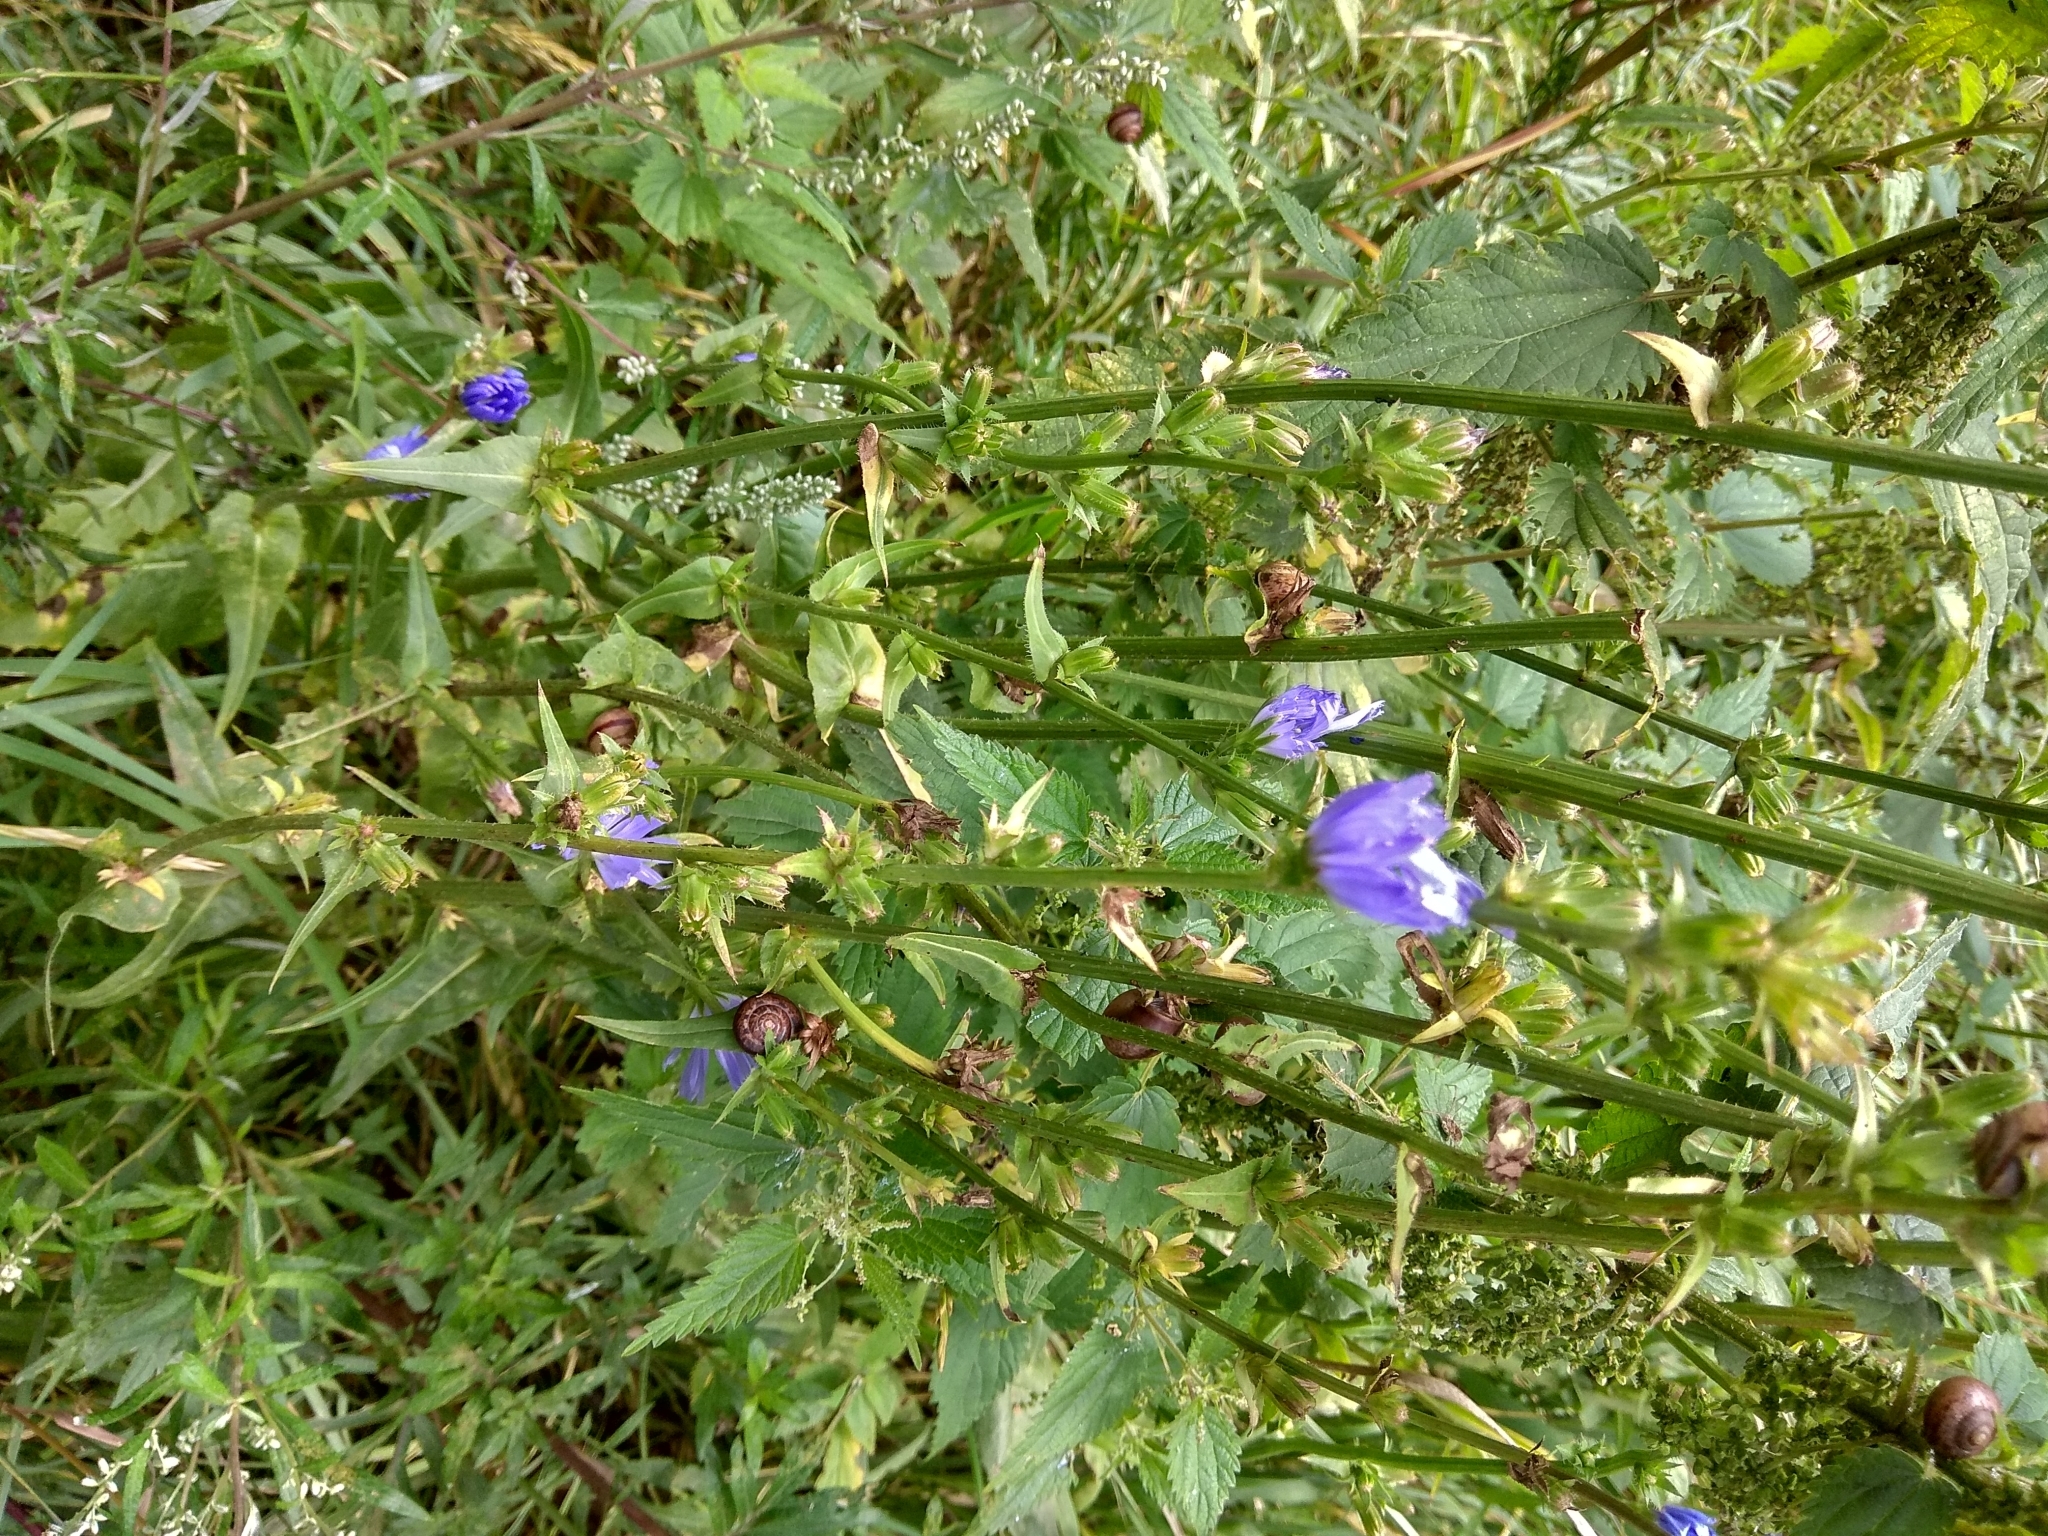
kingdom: Plantae
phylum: Tracheophyta
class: Magnoliopsida
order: Asterales
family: Asteraceae
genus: Cichorium
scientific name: Cichorium intybus
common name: Chicory
